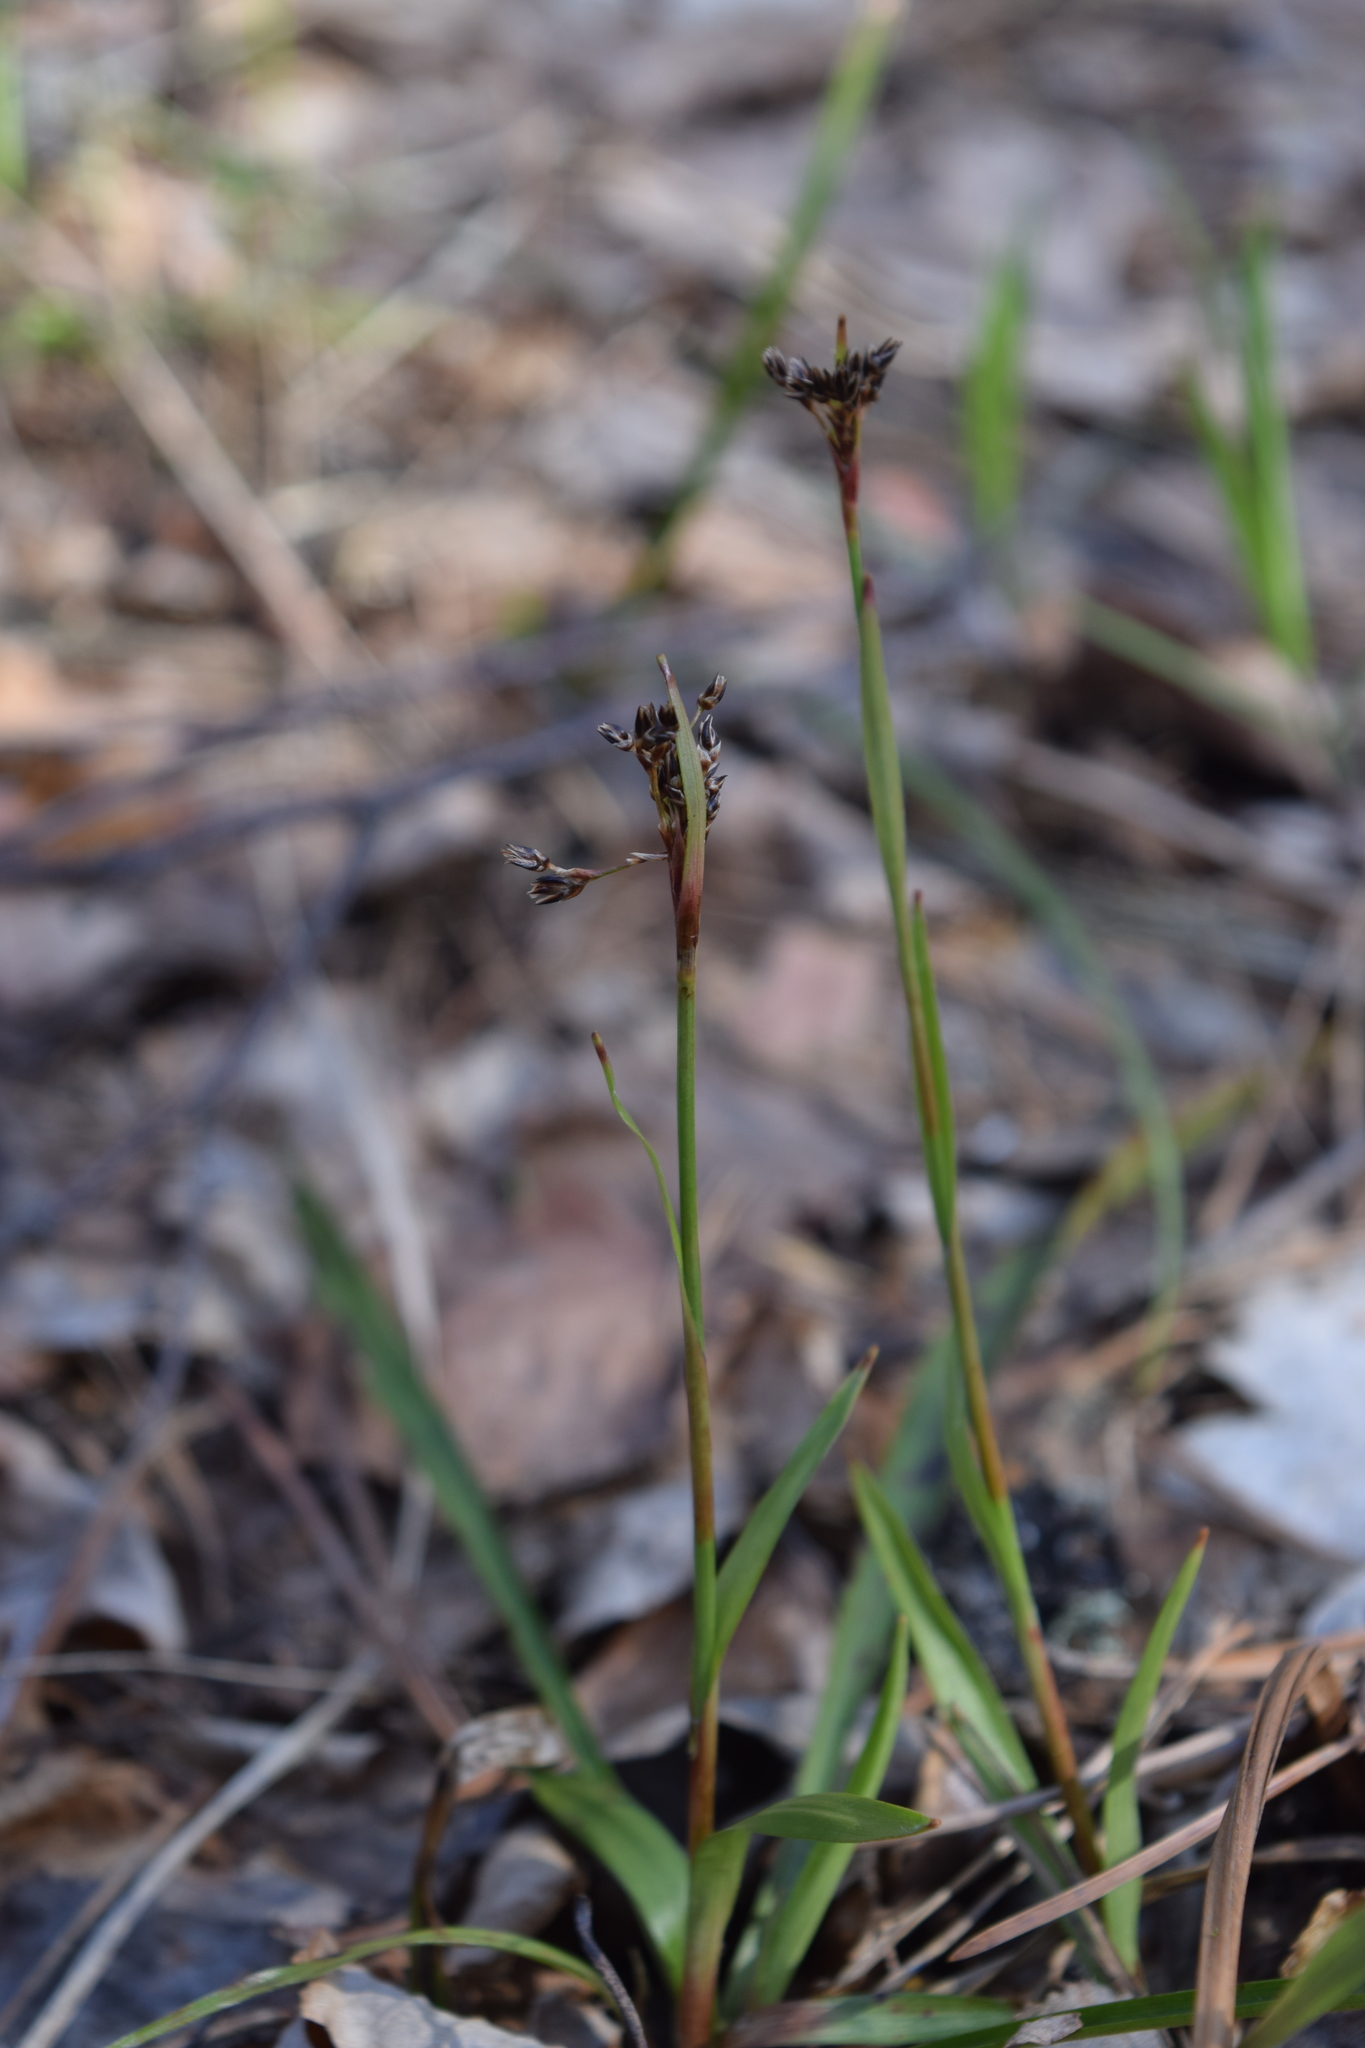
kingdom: Plantae
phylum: Tracheophyta
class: Liliopsida
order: Poales
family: Juncaceae
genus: Luzula
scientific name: Luzula pilosa
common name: Hairy wood-rush
